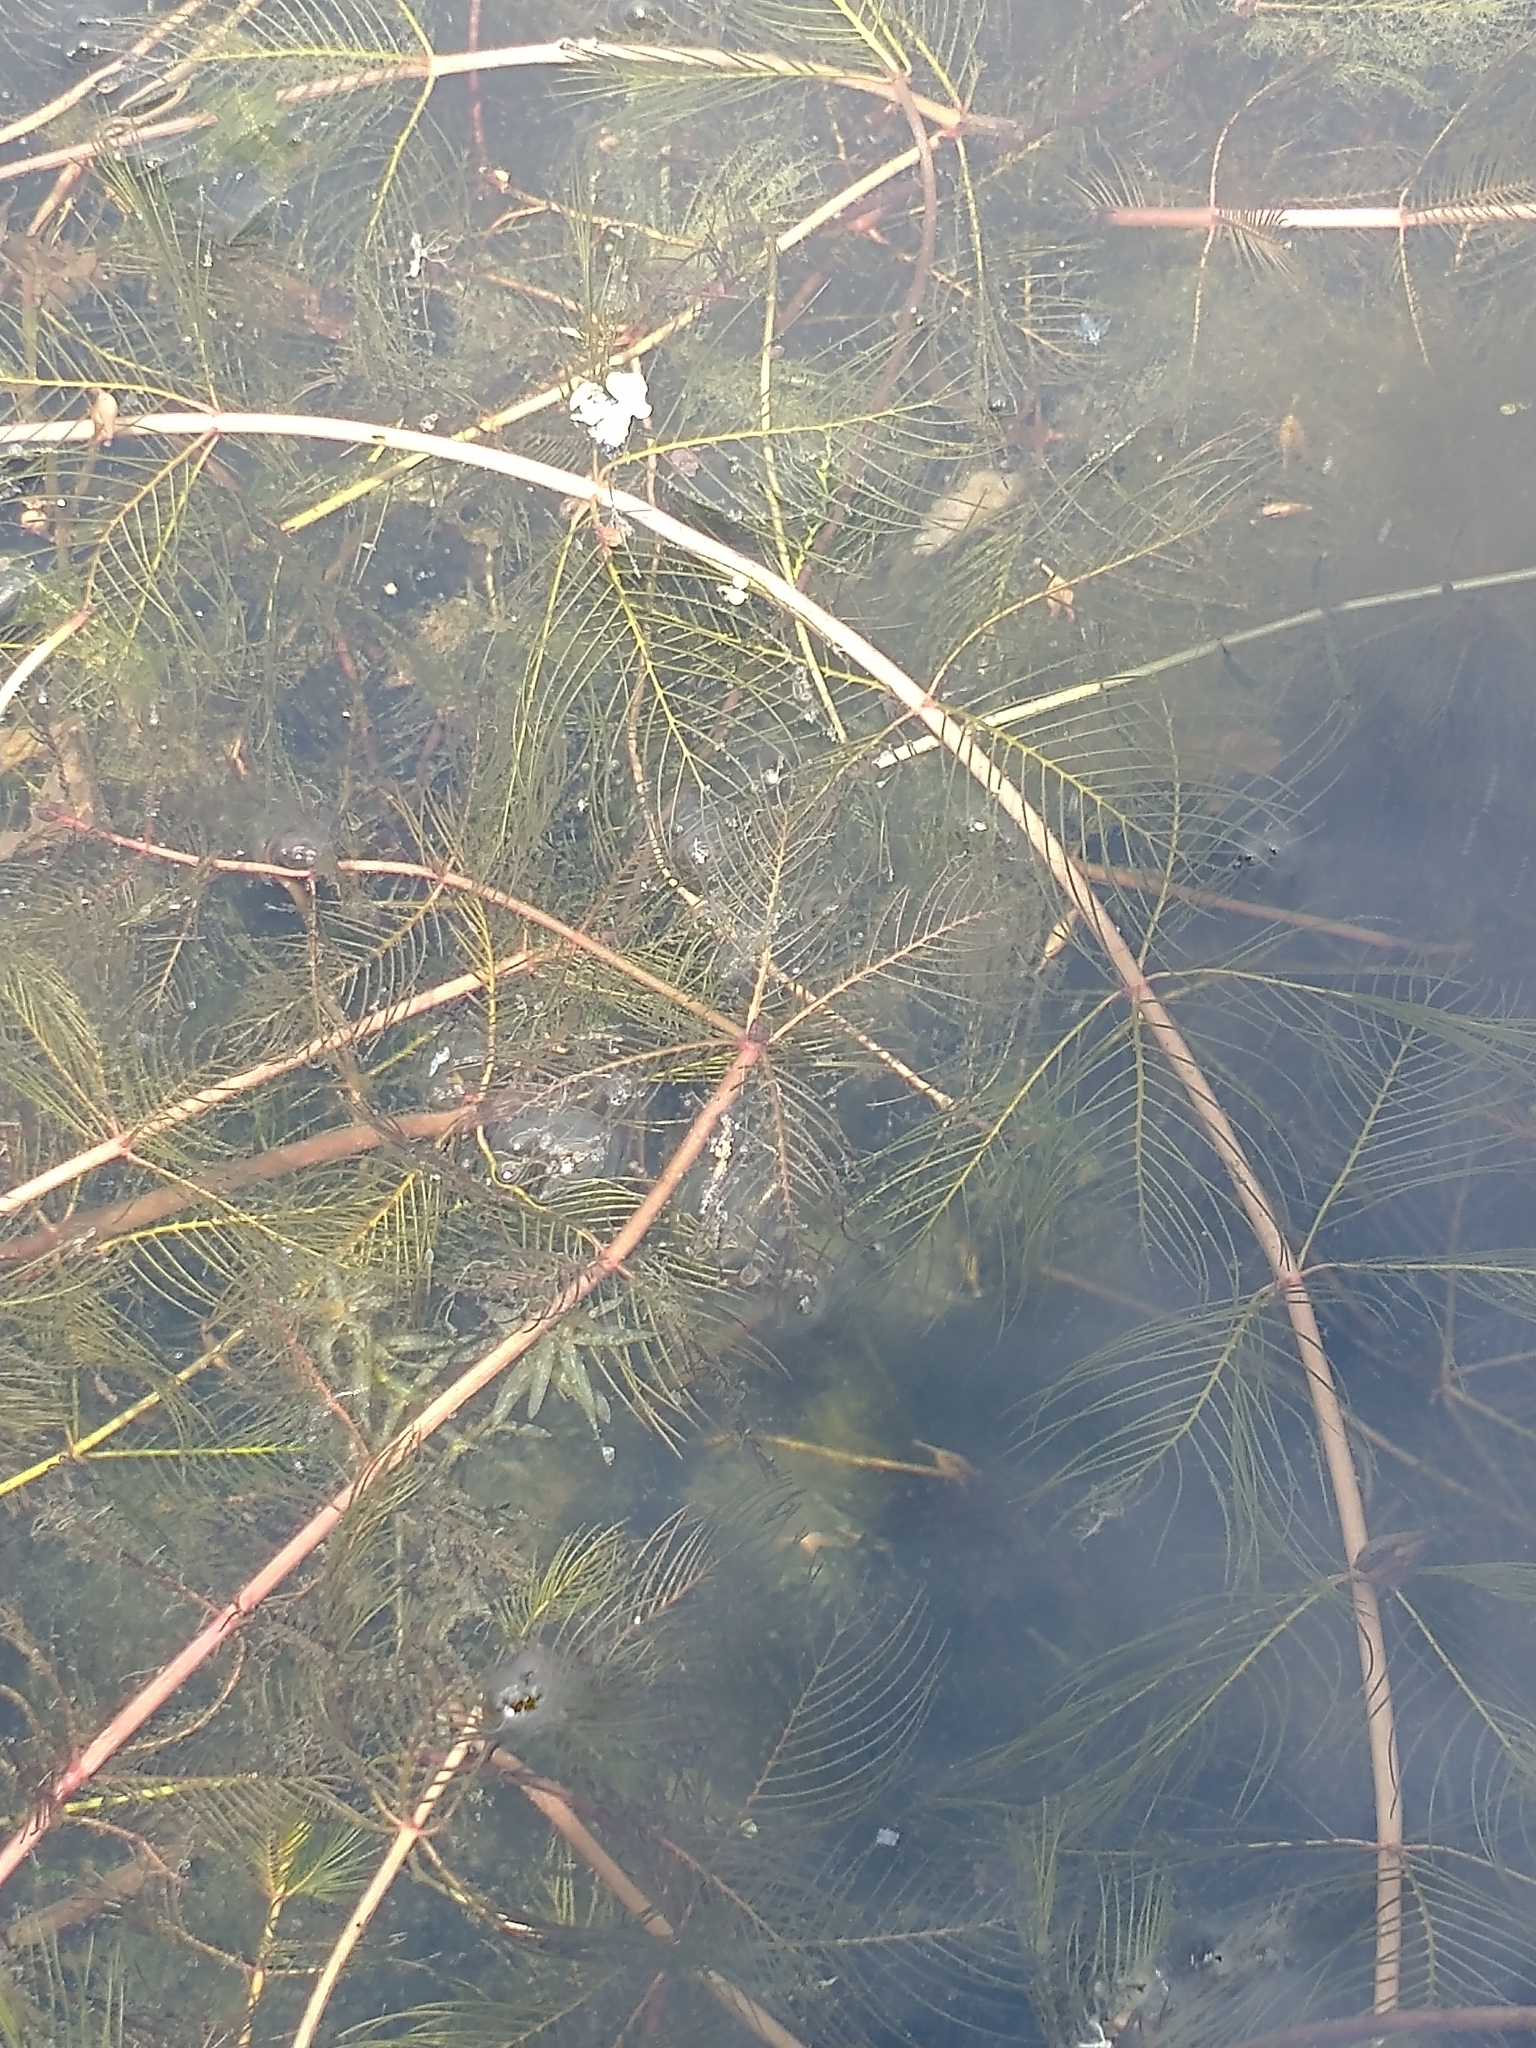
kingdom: Plantae
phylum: Tracheophyta
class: Magnoliopsida
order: Saxifragales
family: Haloragaceae
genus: Myriophyllum
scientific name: Myriophyllum spicatum
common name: Spiked water-milfoil
